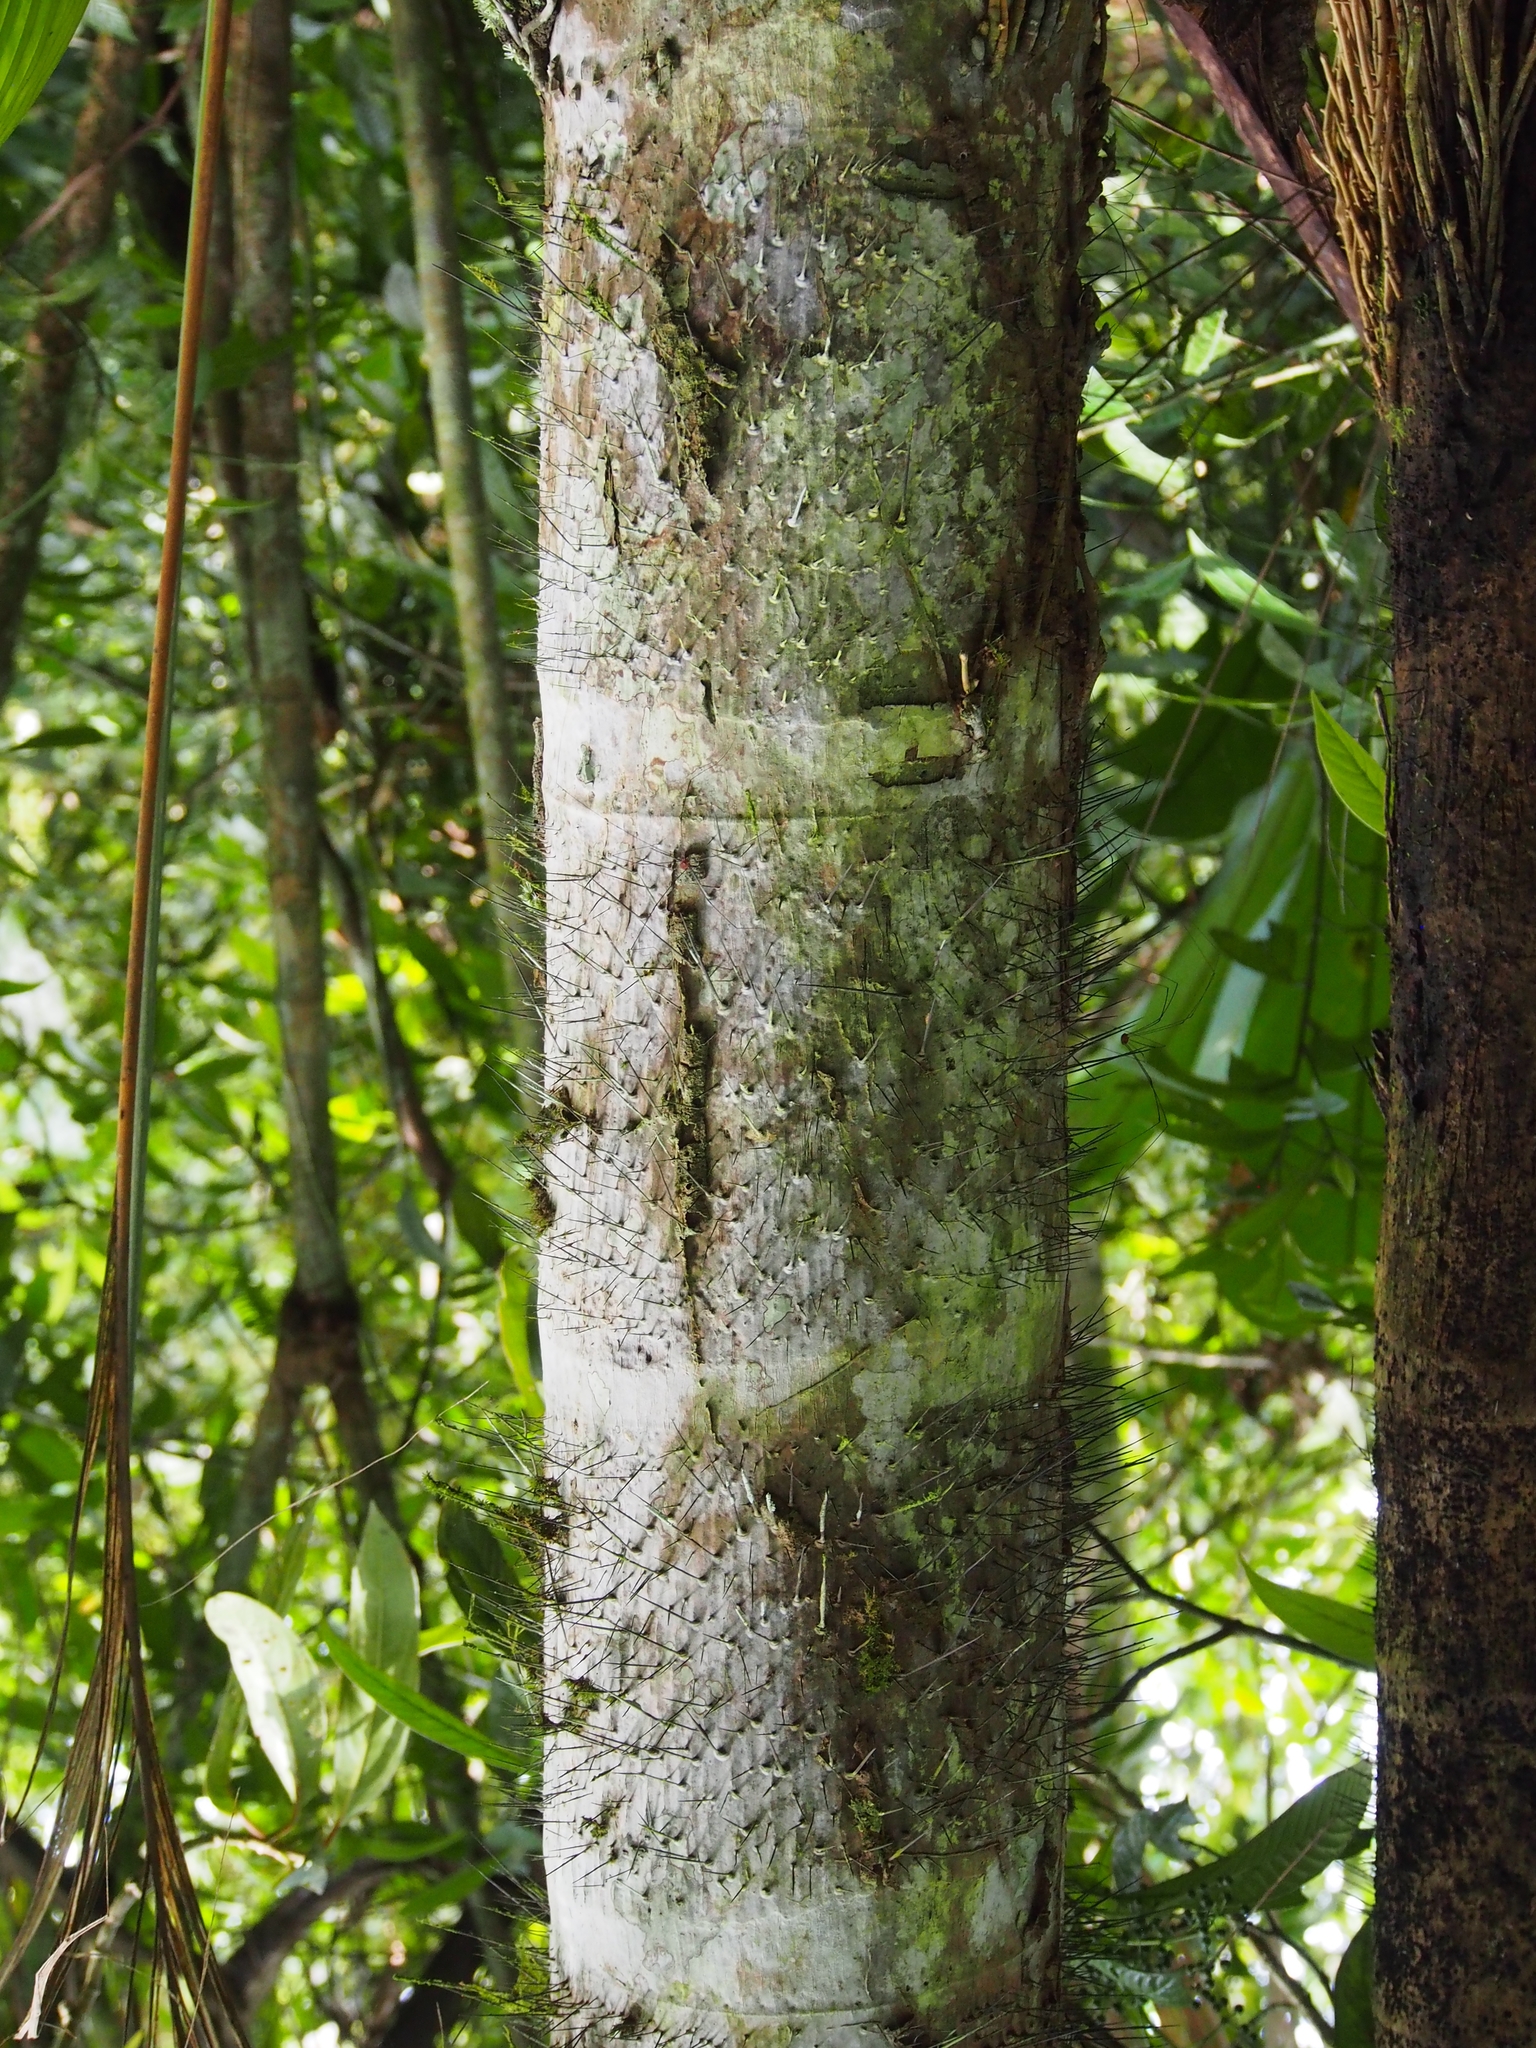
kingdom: Plantae
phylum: Tracheophyta
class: Liliopsida
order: Arecales
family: Arecaceae
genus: Bactris
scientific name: Bactris gasipaes
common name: Peach palm
